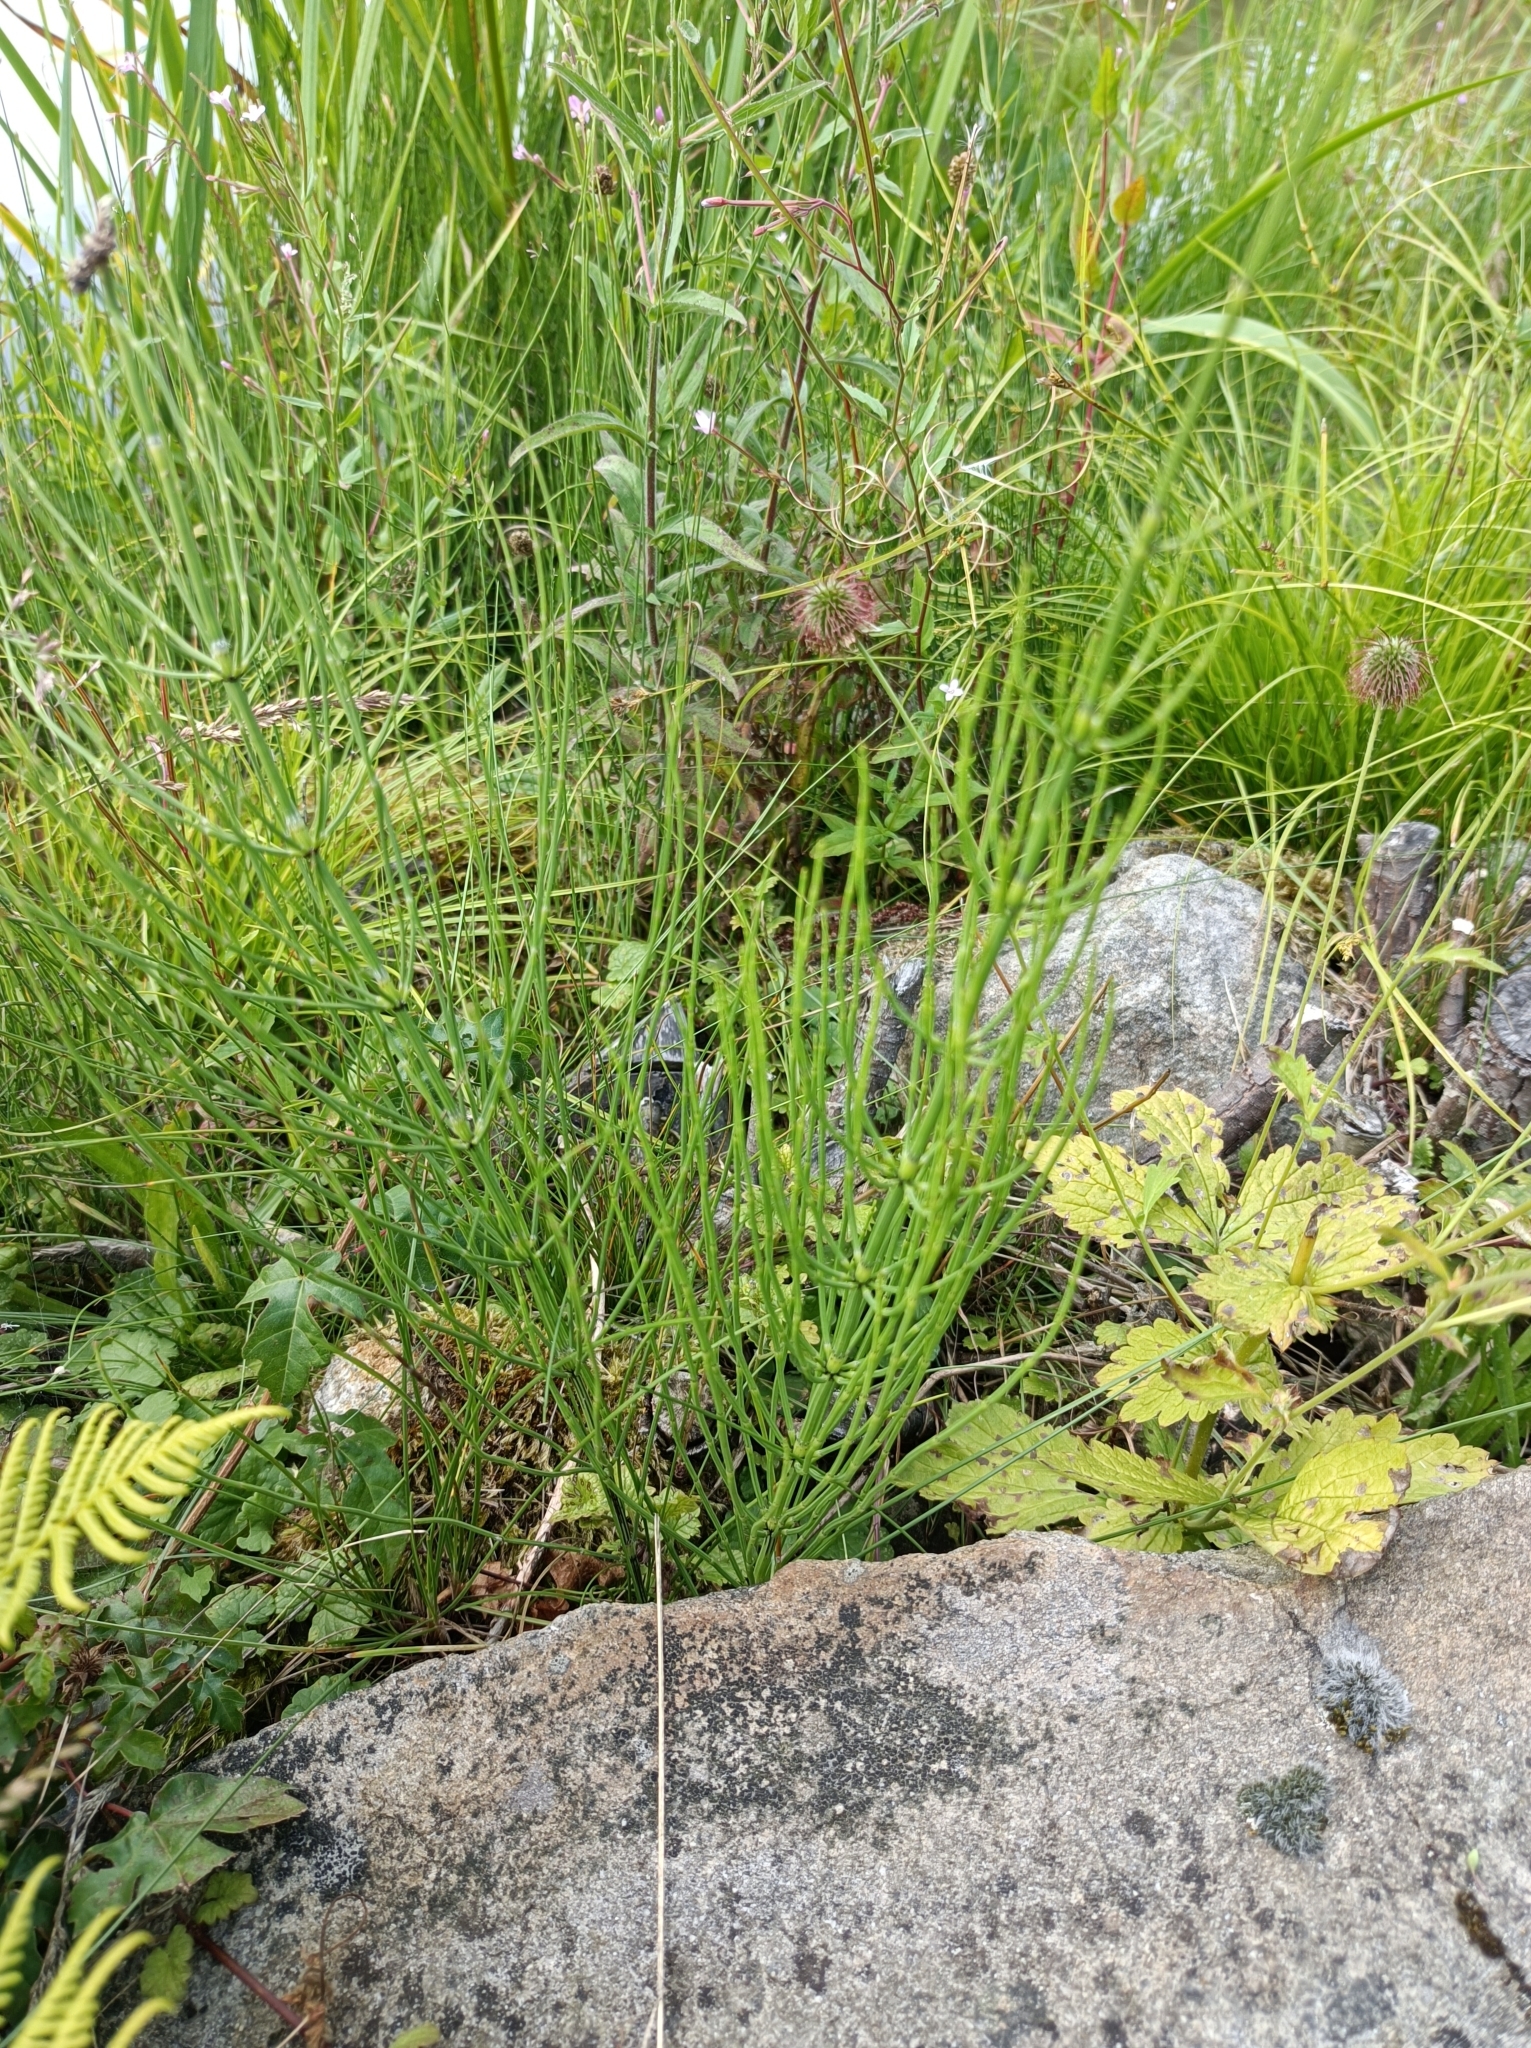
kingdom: Plantae
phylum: Tracheophyta
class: Polypodiopsida
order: Equisetales
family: Equisetaceae
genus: Equisetum
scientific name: Equisetum palustre
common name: Marsh horsetail
